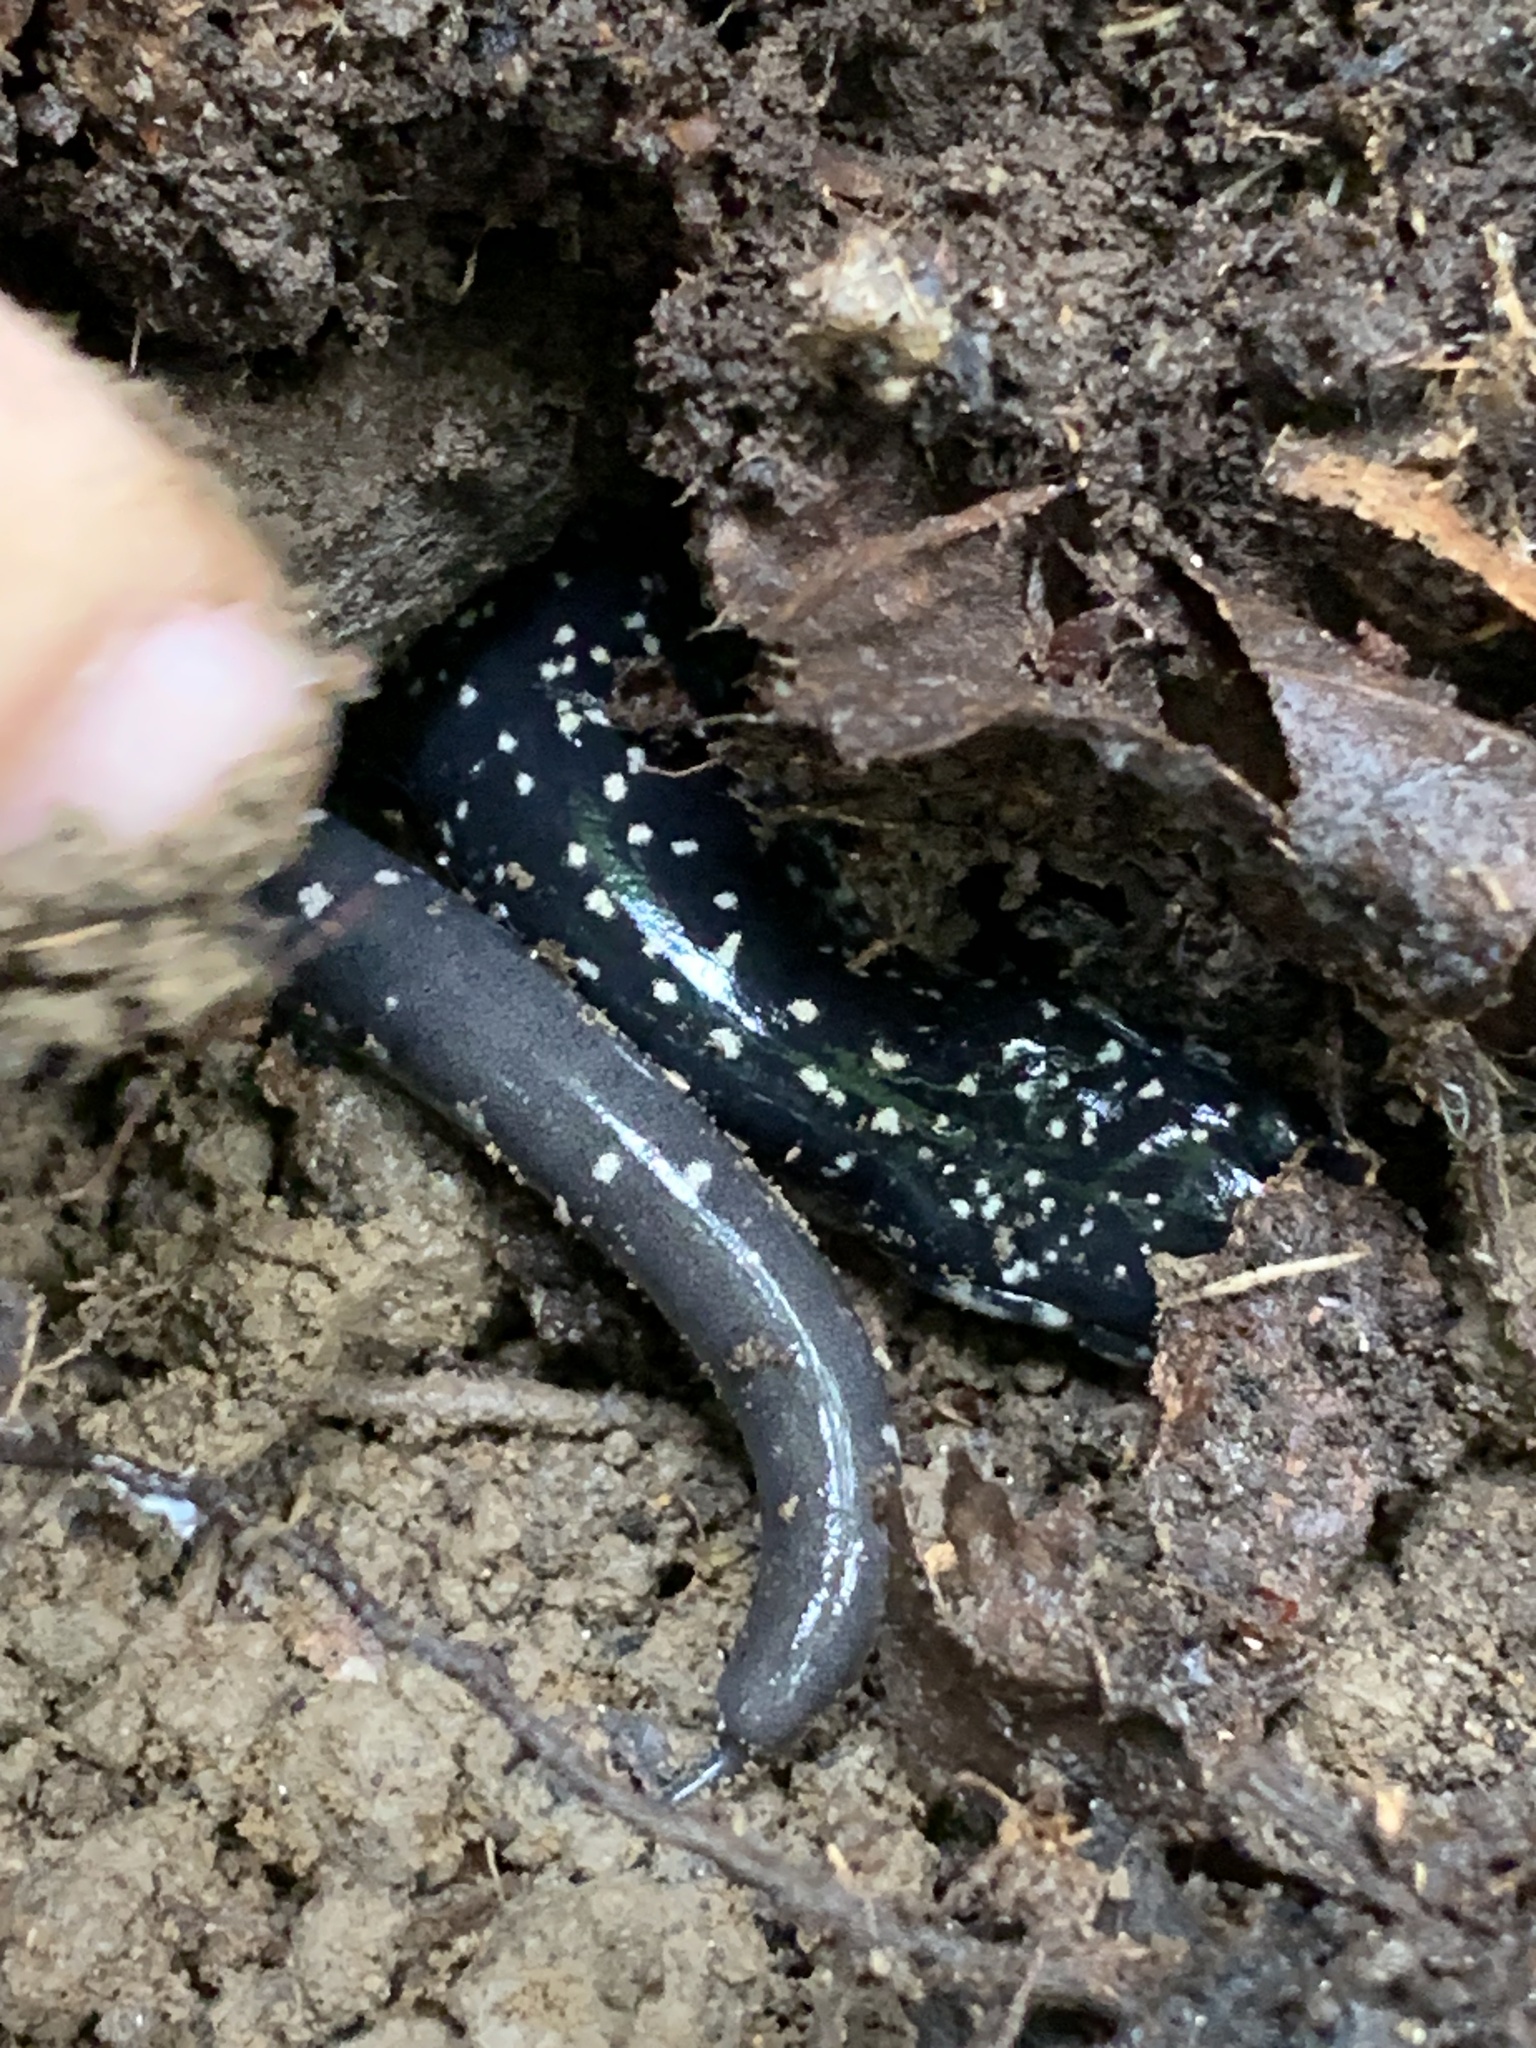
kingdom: Animalia
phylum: Chordata
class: Amphibia
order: Caudata
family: Plethodontidae
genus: Plethodon
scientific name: Plethodon glutinosus
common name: Northern slimy salamander
